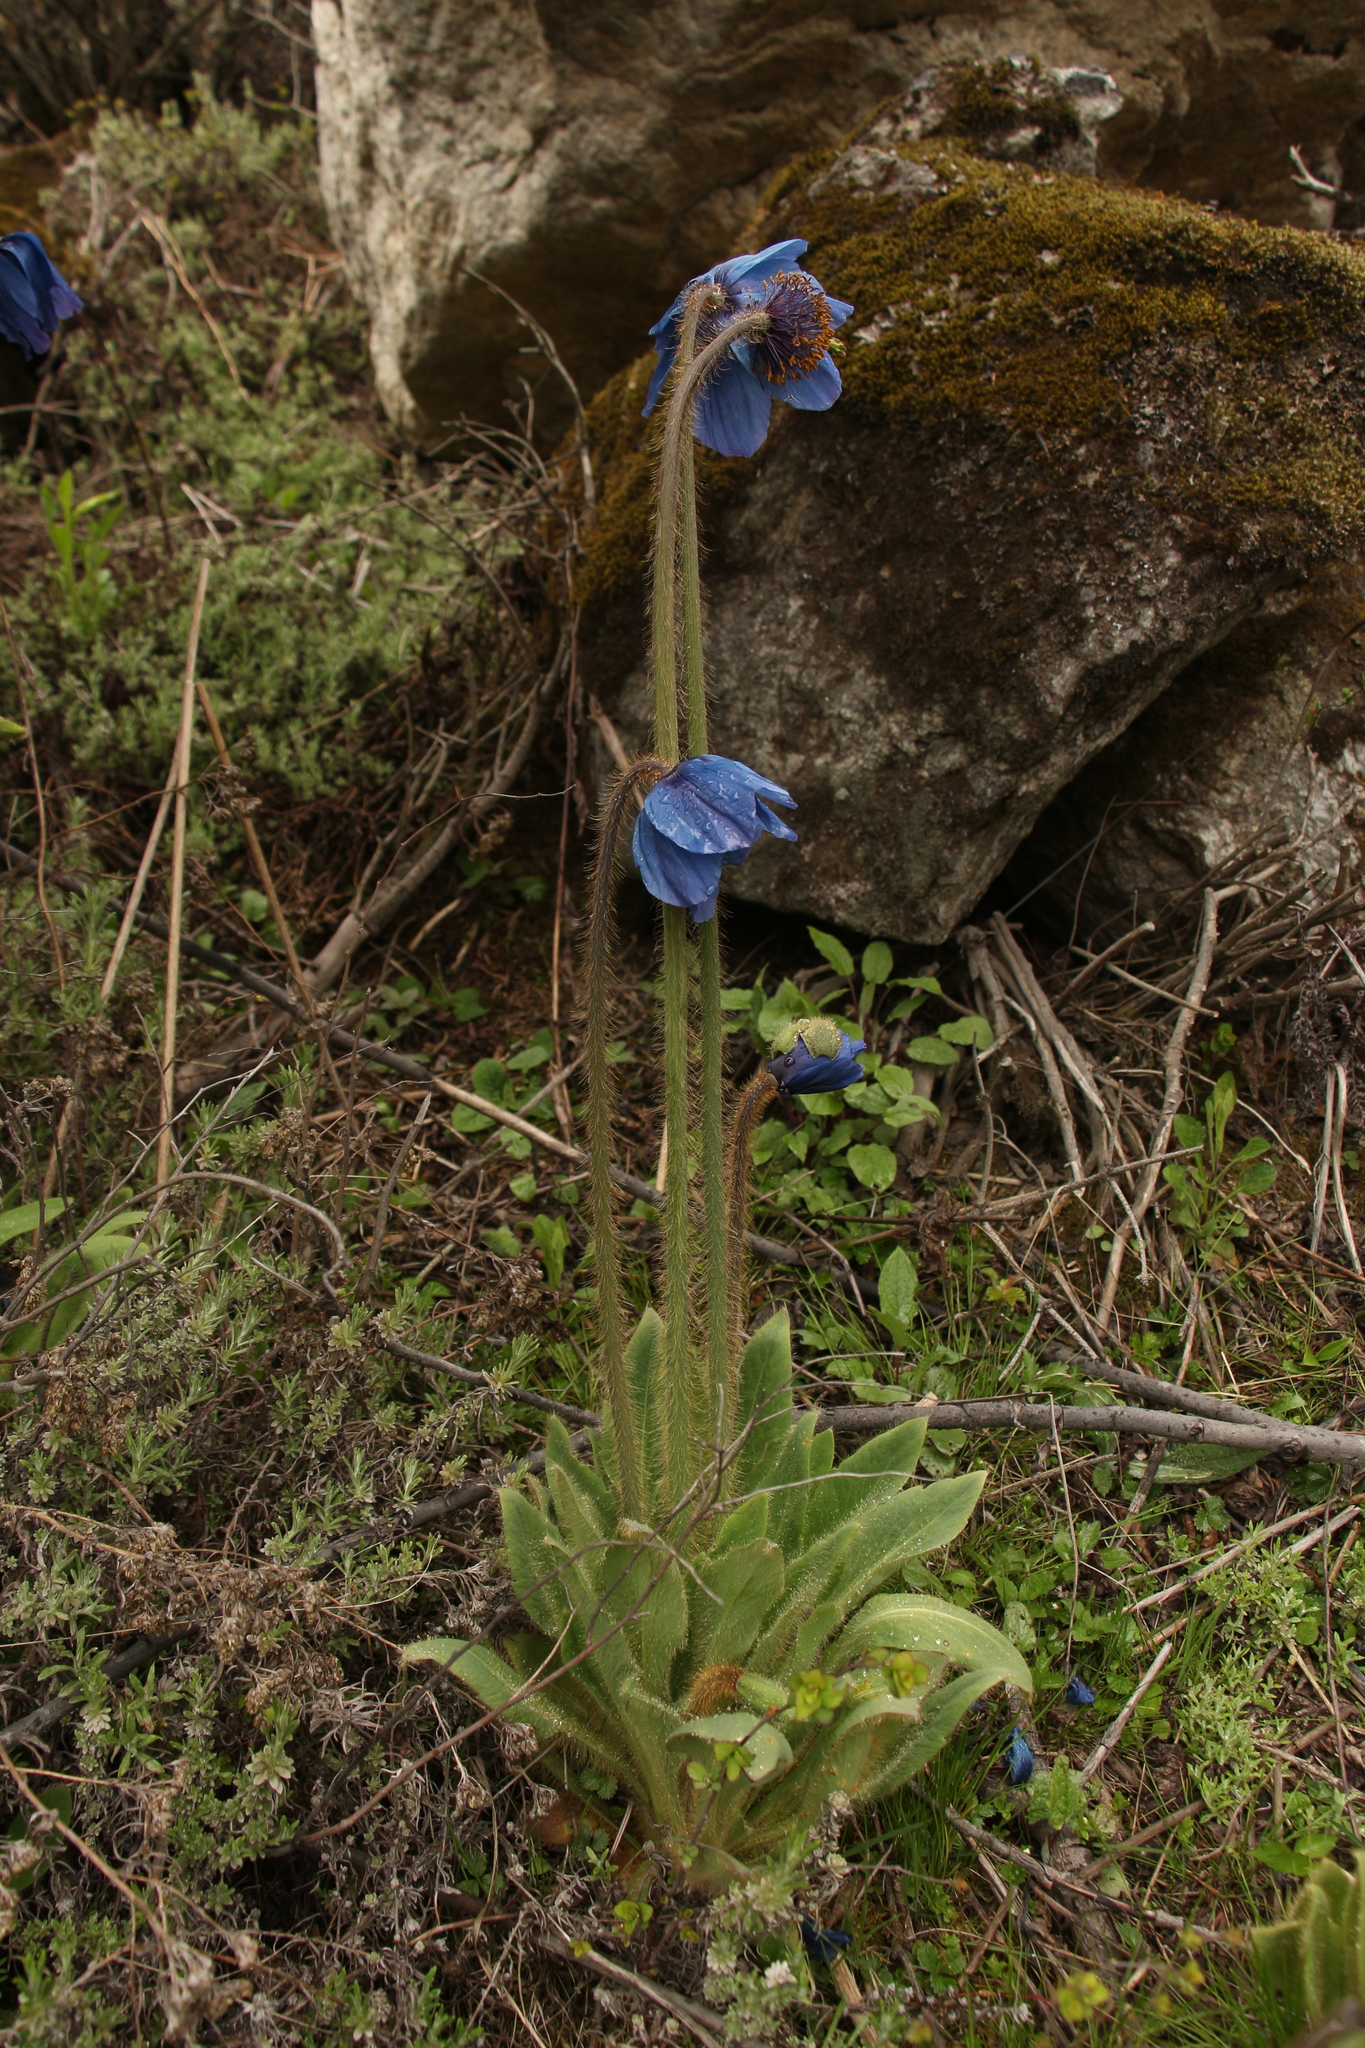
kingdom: Plantae
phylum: Tracheophyta
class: Magnoliopsida
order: Ranunculales
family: Papaveraceae
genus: Meconopsis
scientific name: Meconopsis simplicifolia
